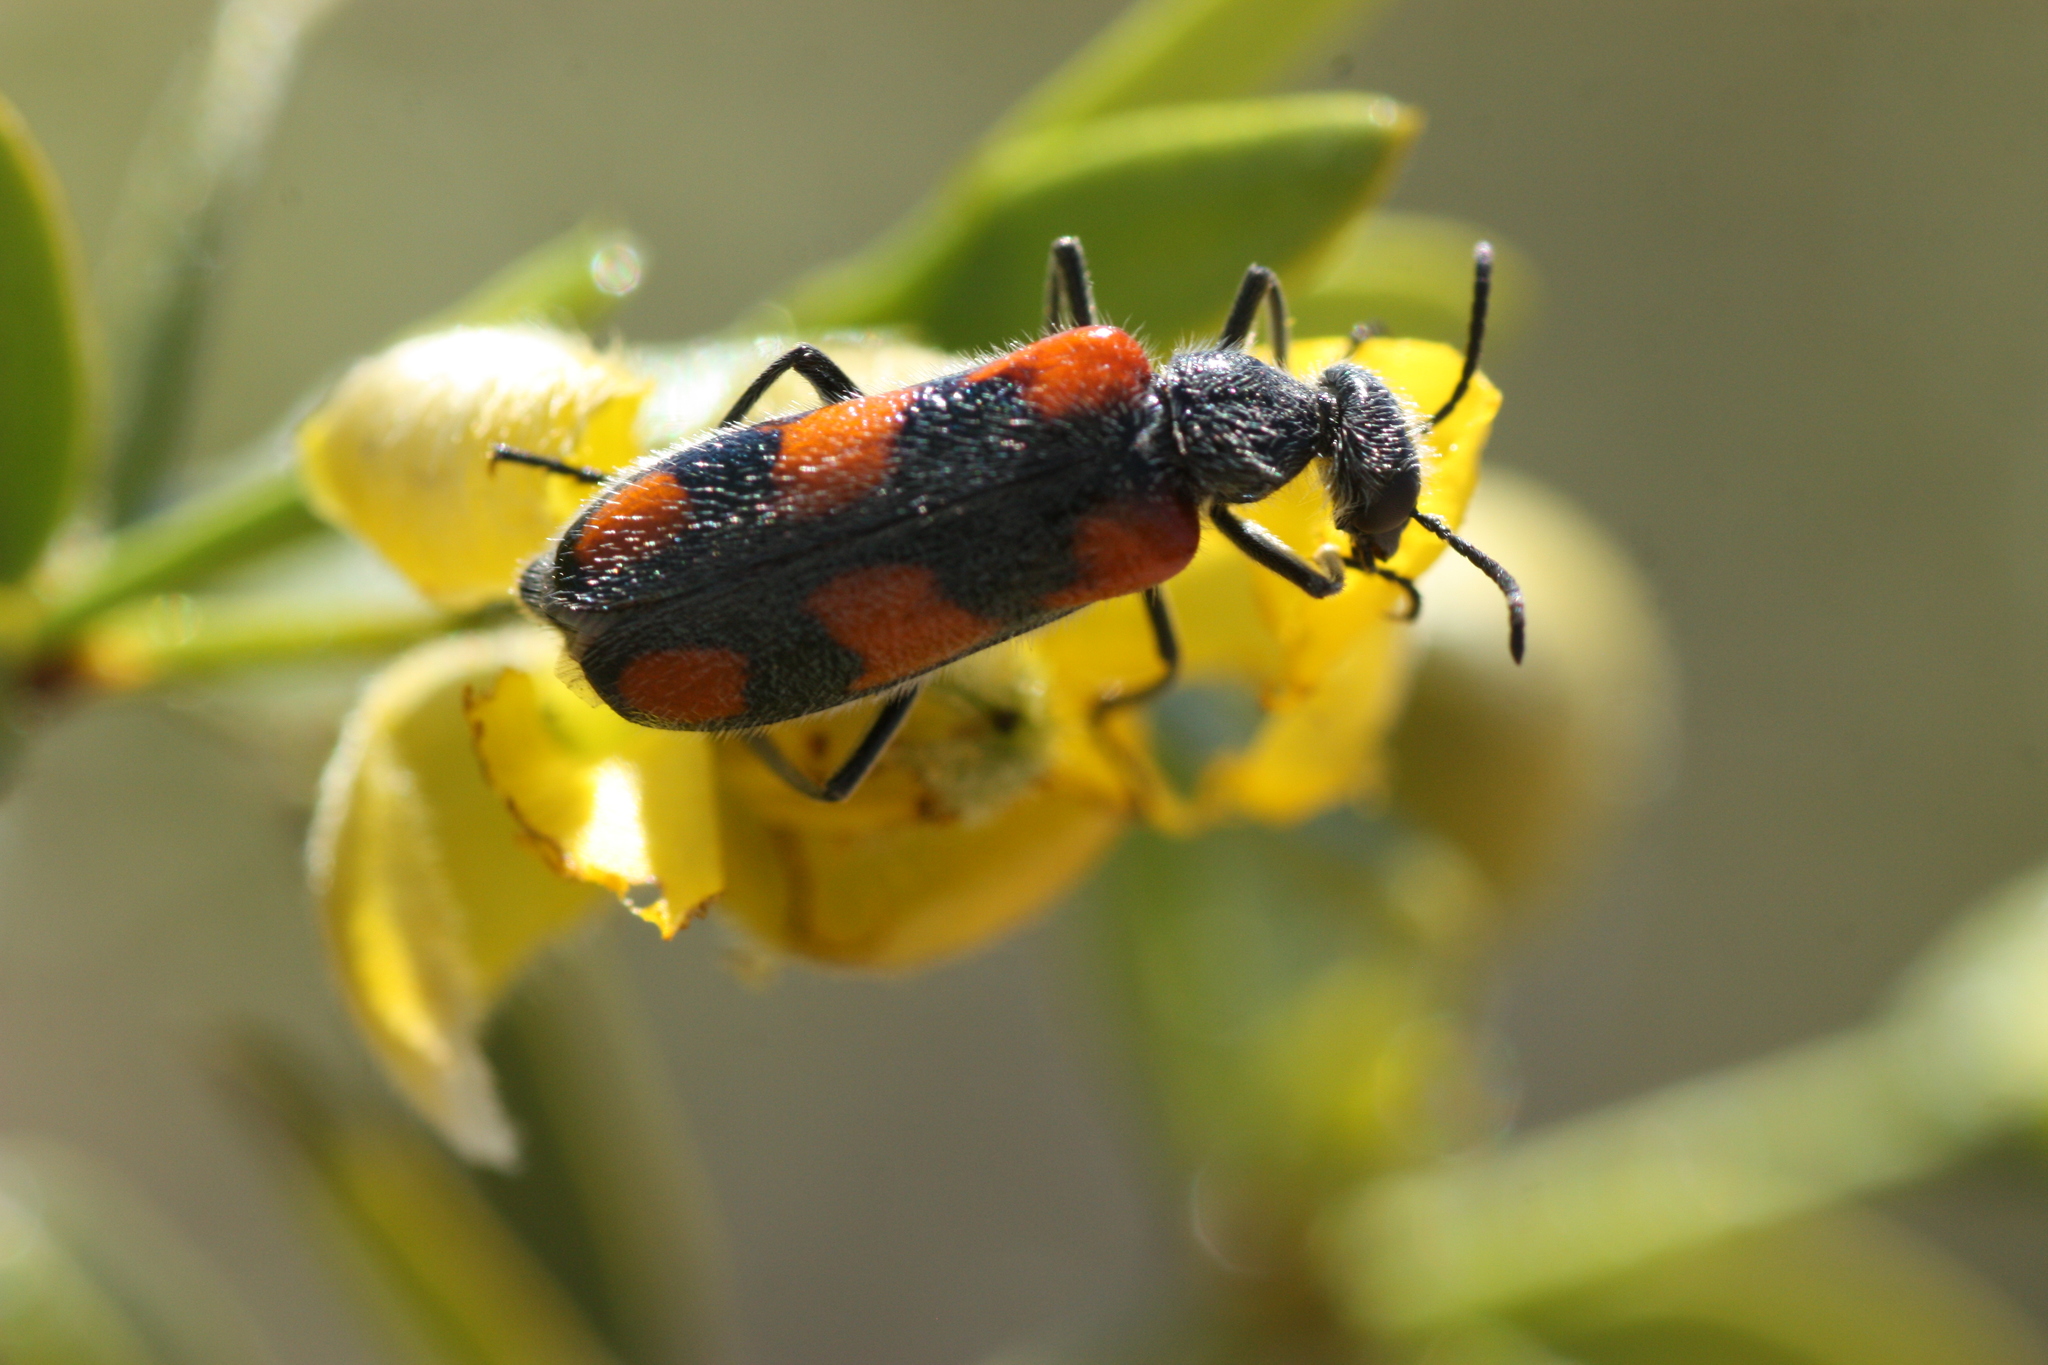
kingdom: Animalia
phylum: Arthropoda
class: Insecta
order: Coleoptera
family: Meloidae
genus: Eupompha
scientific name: Eupompha elegans
